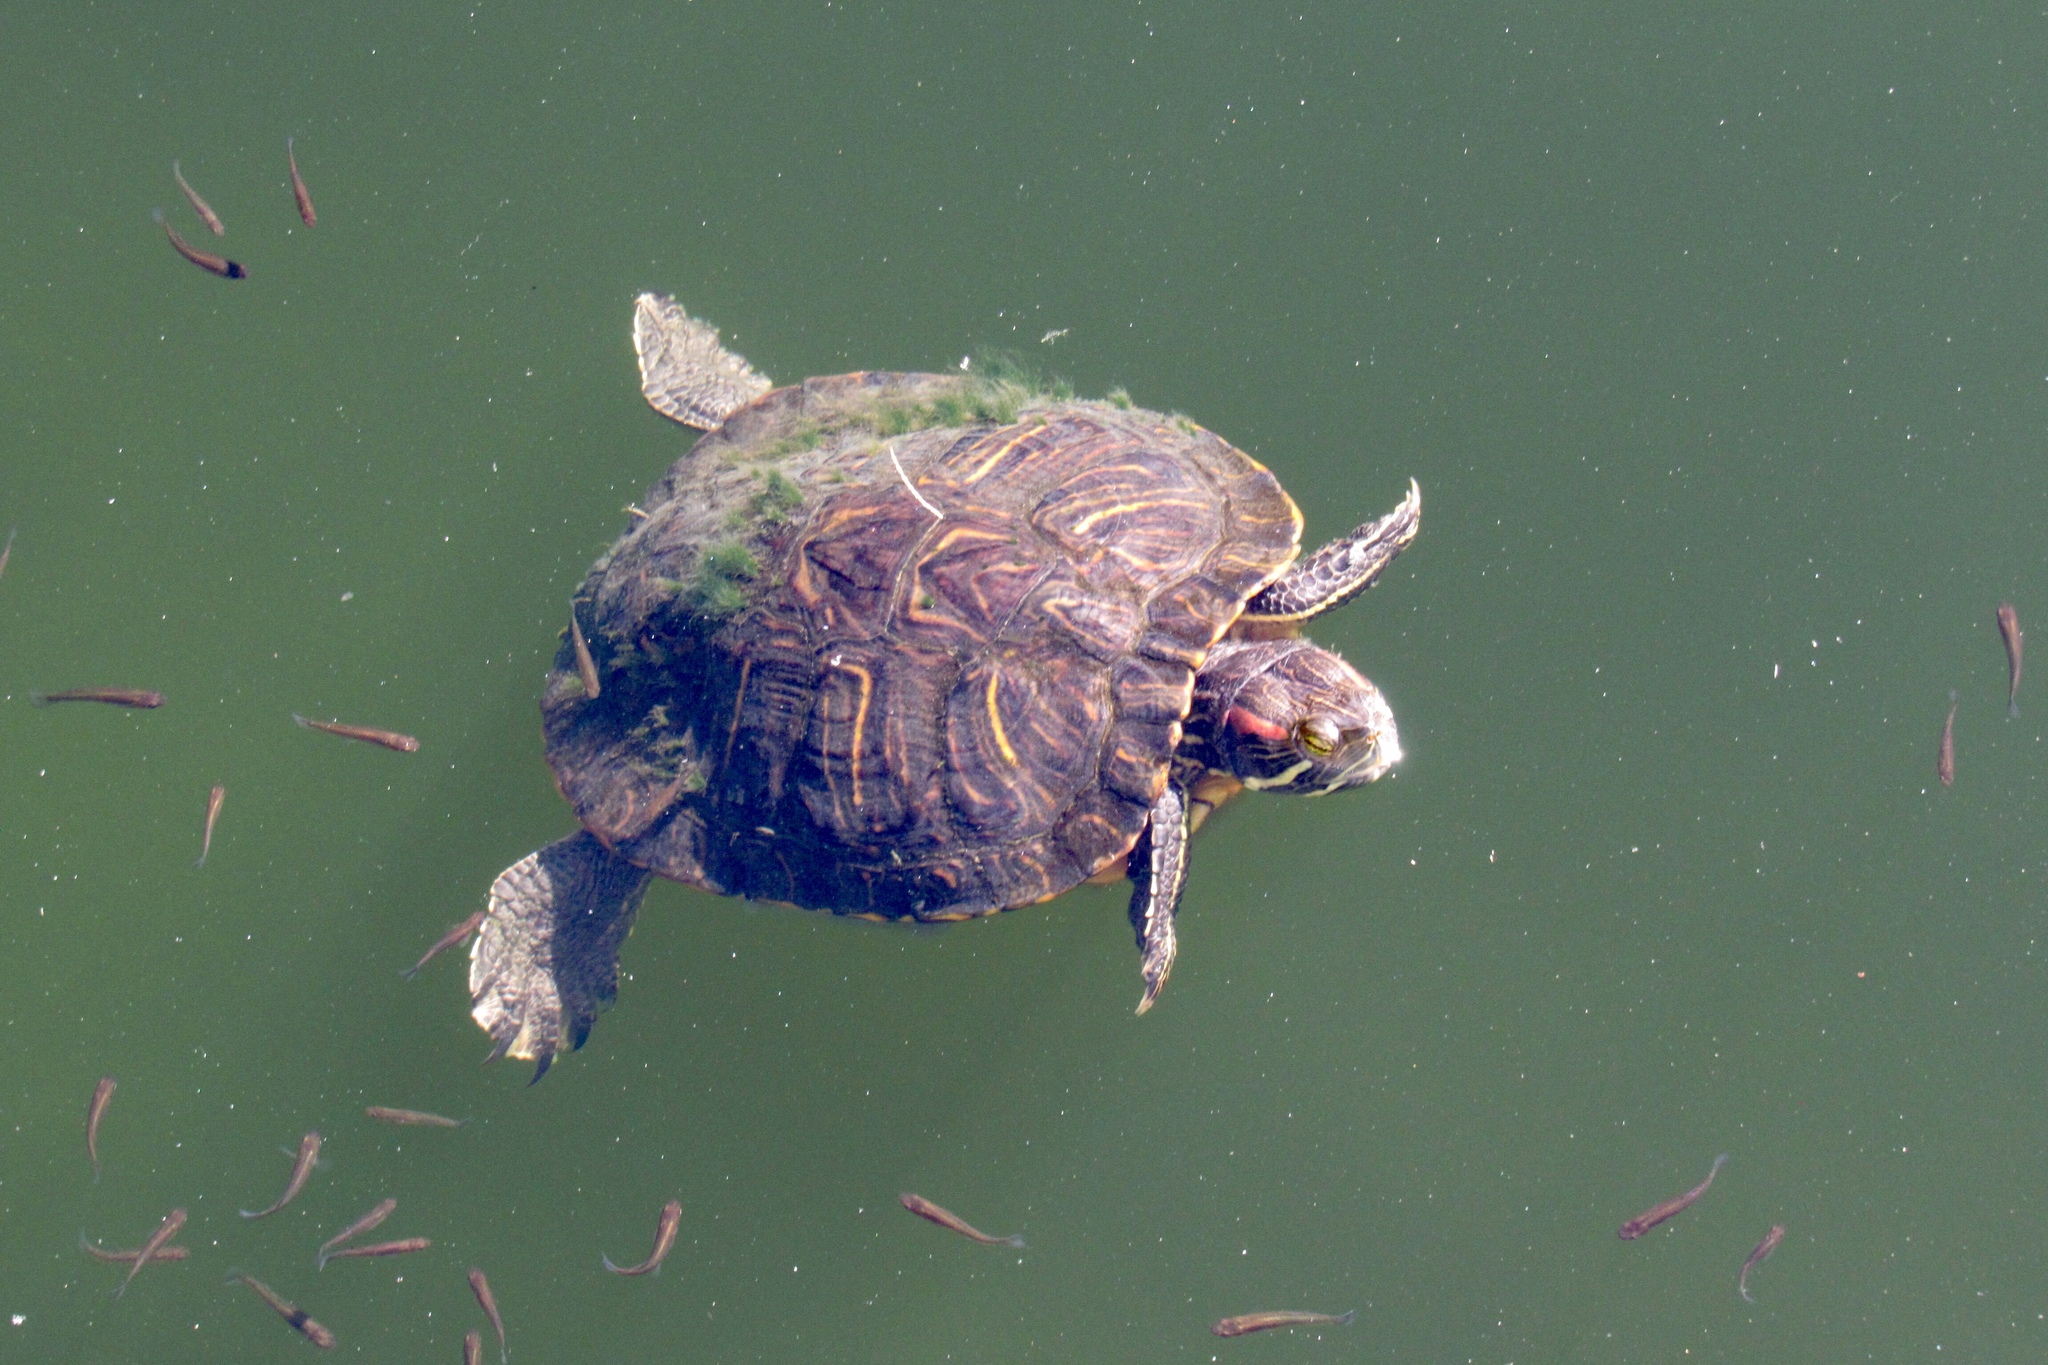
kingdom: Animalia
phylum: Chordata
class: Testudines
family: Emydidae
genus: Trachemys
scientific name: Trachemys scripta
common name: Slider
